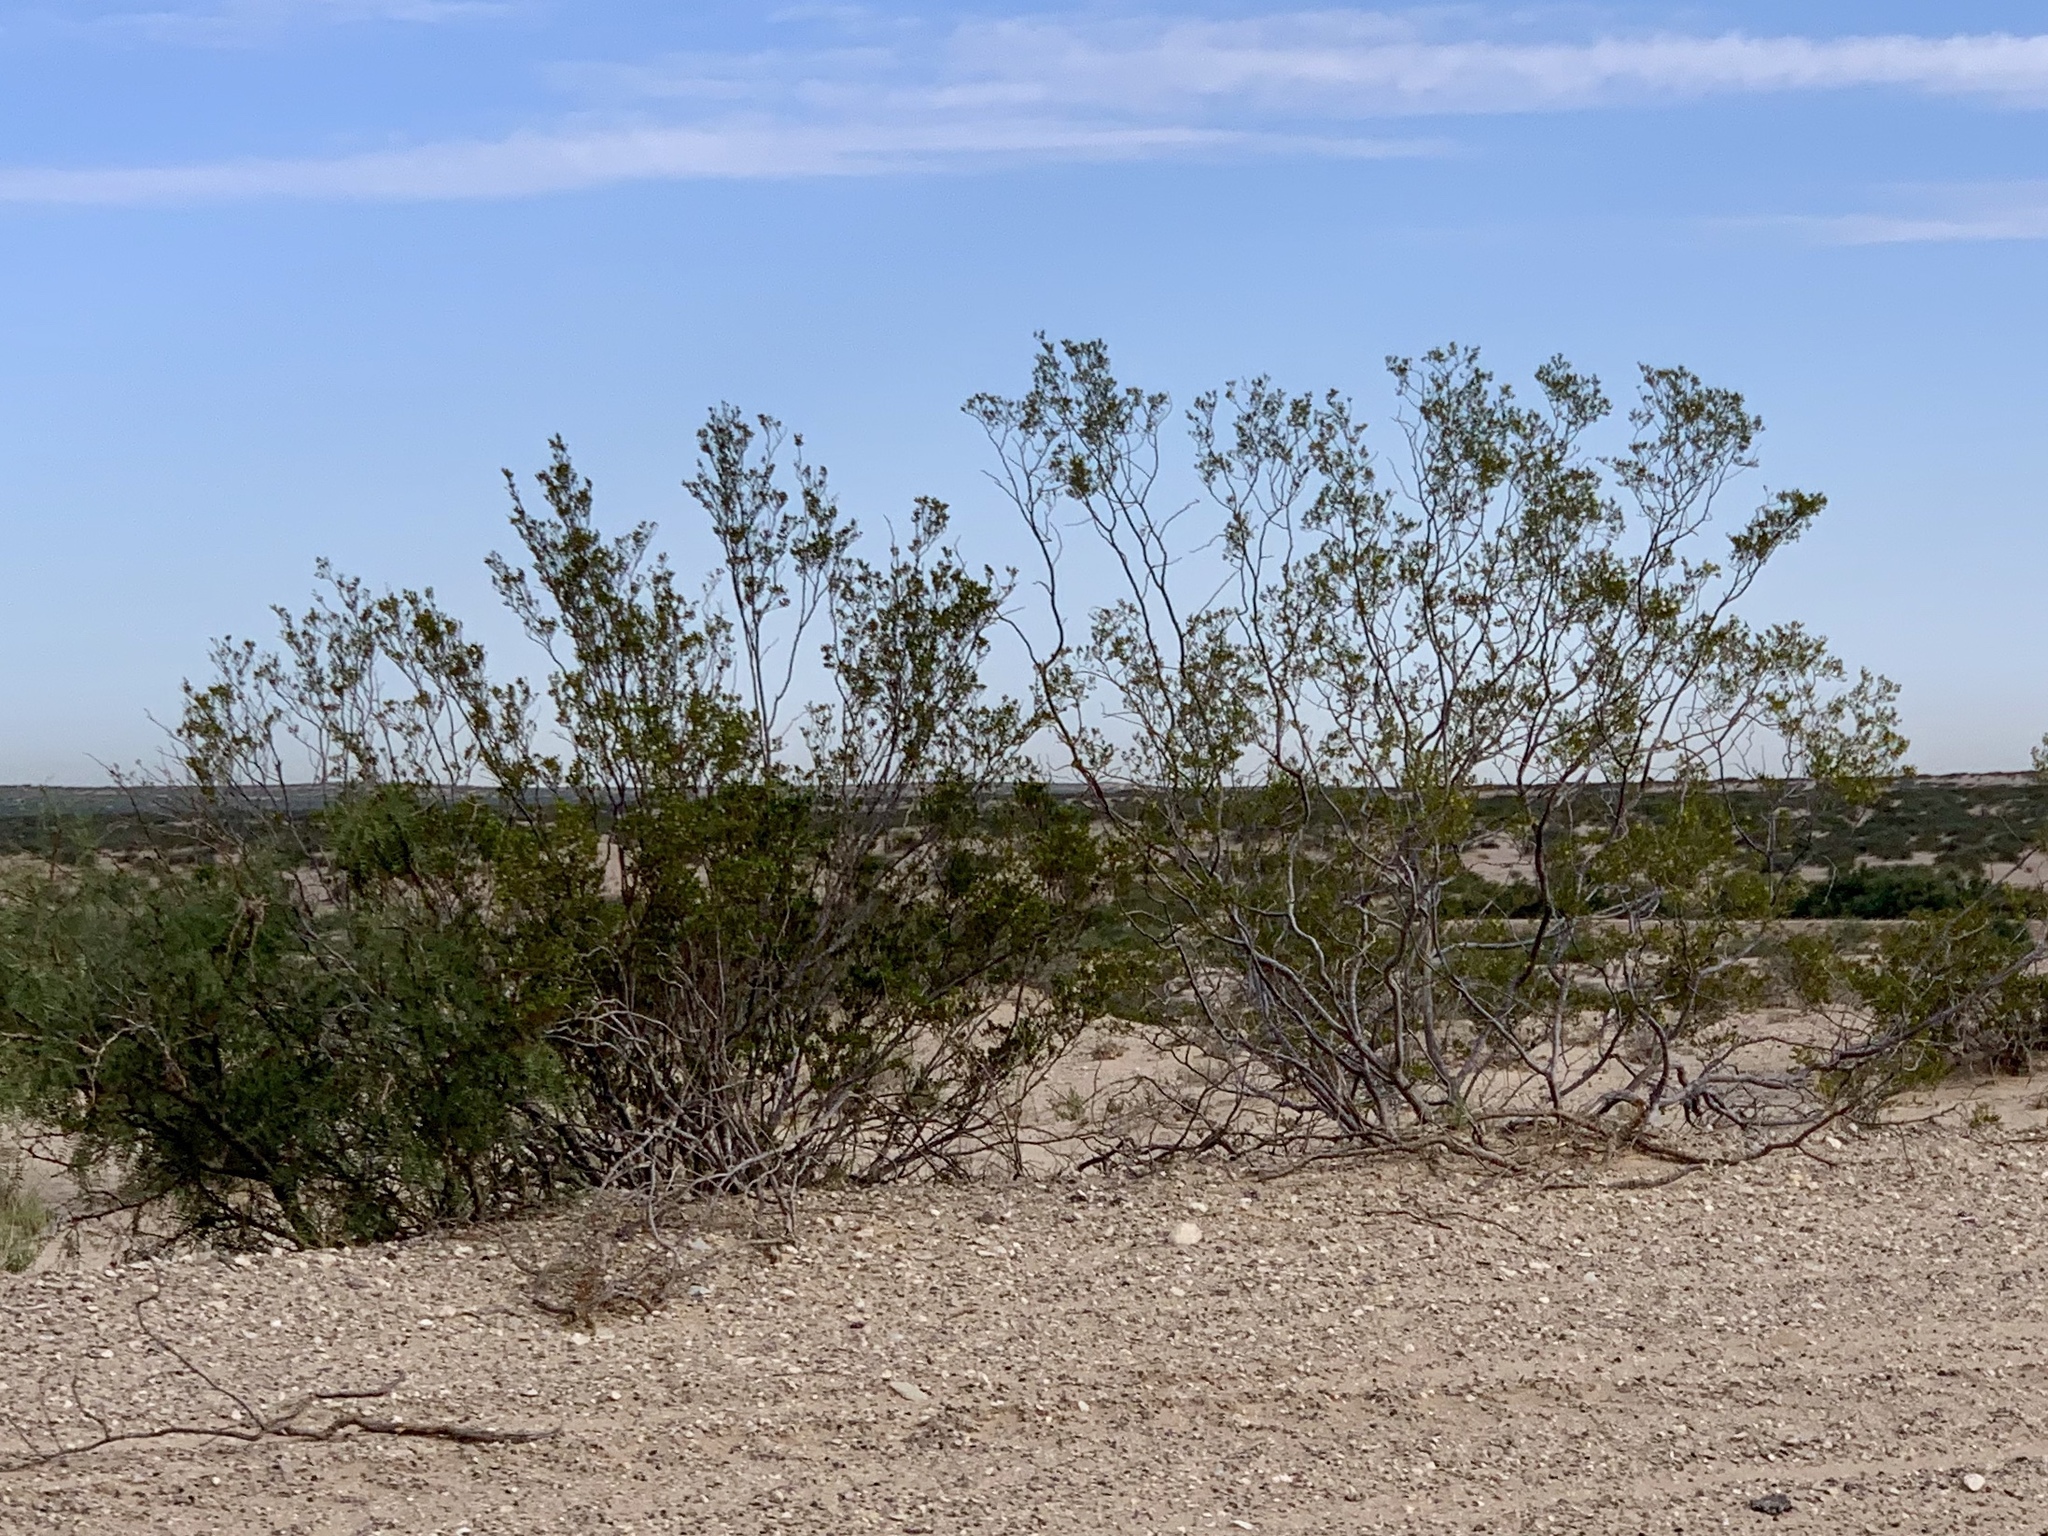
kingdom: Plantae
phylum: Tracheophyta
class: Magnoliopsida
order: Zygophyllales
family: Zygophyllaceae
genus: Larrea
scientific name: Larrea tridentata
